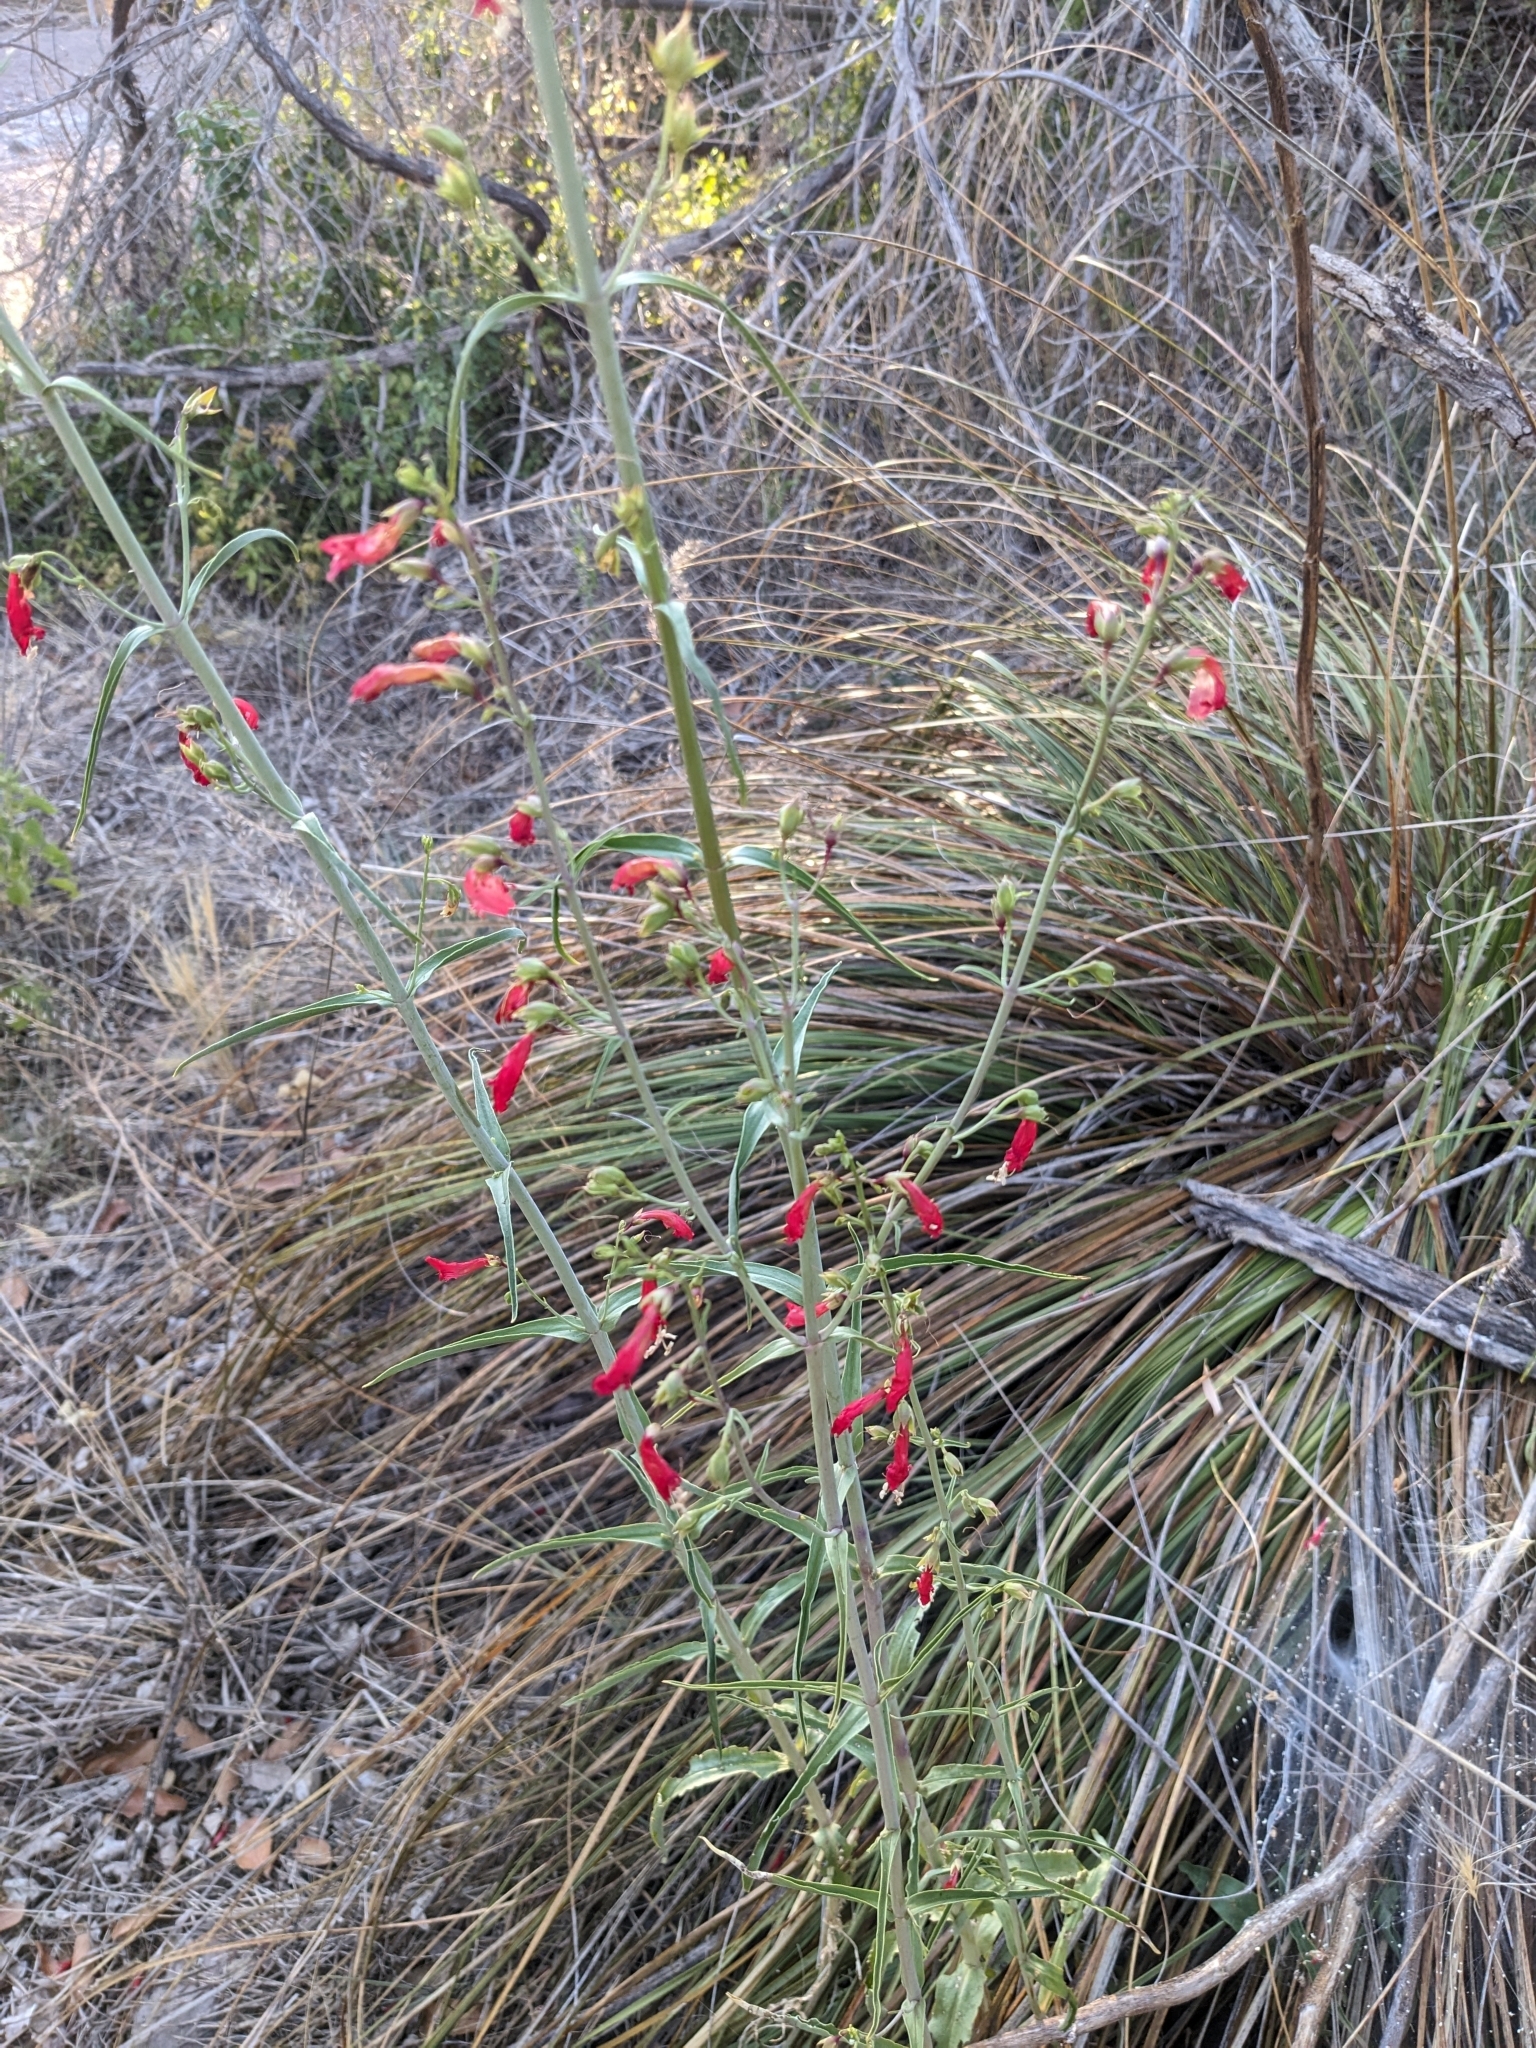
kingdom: Plantae
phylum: Tracheophyta
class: Magnoliopsida
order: Lamiales
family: Plantaginaceae
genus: Penstemon
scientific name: Penstemon barbatus
